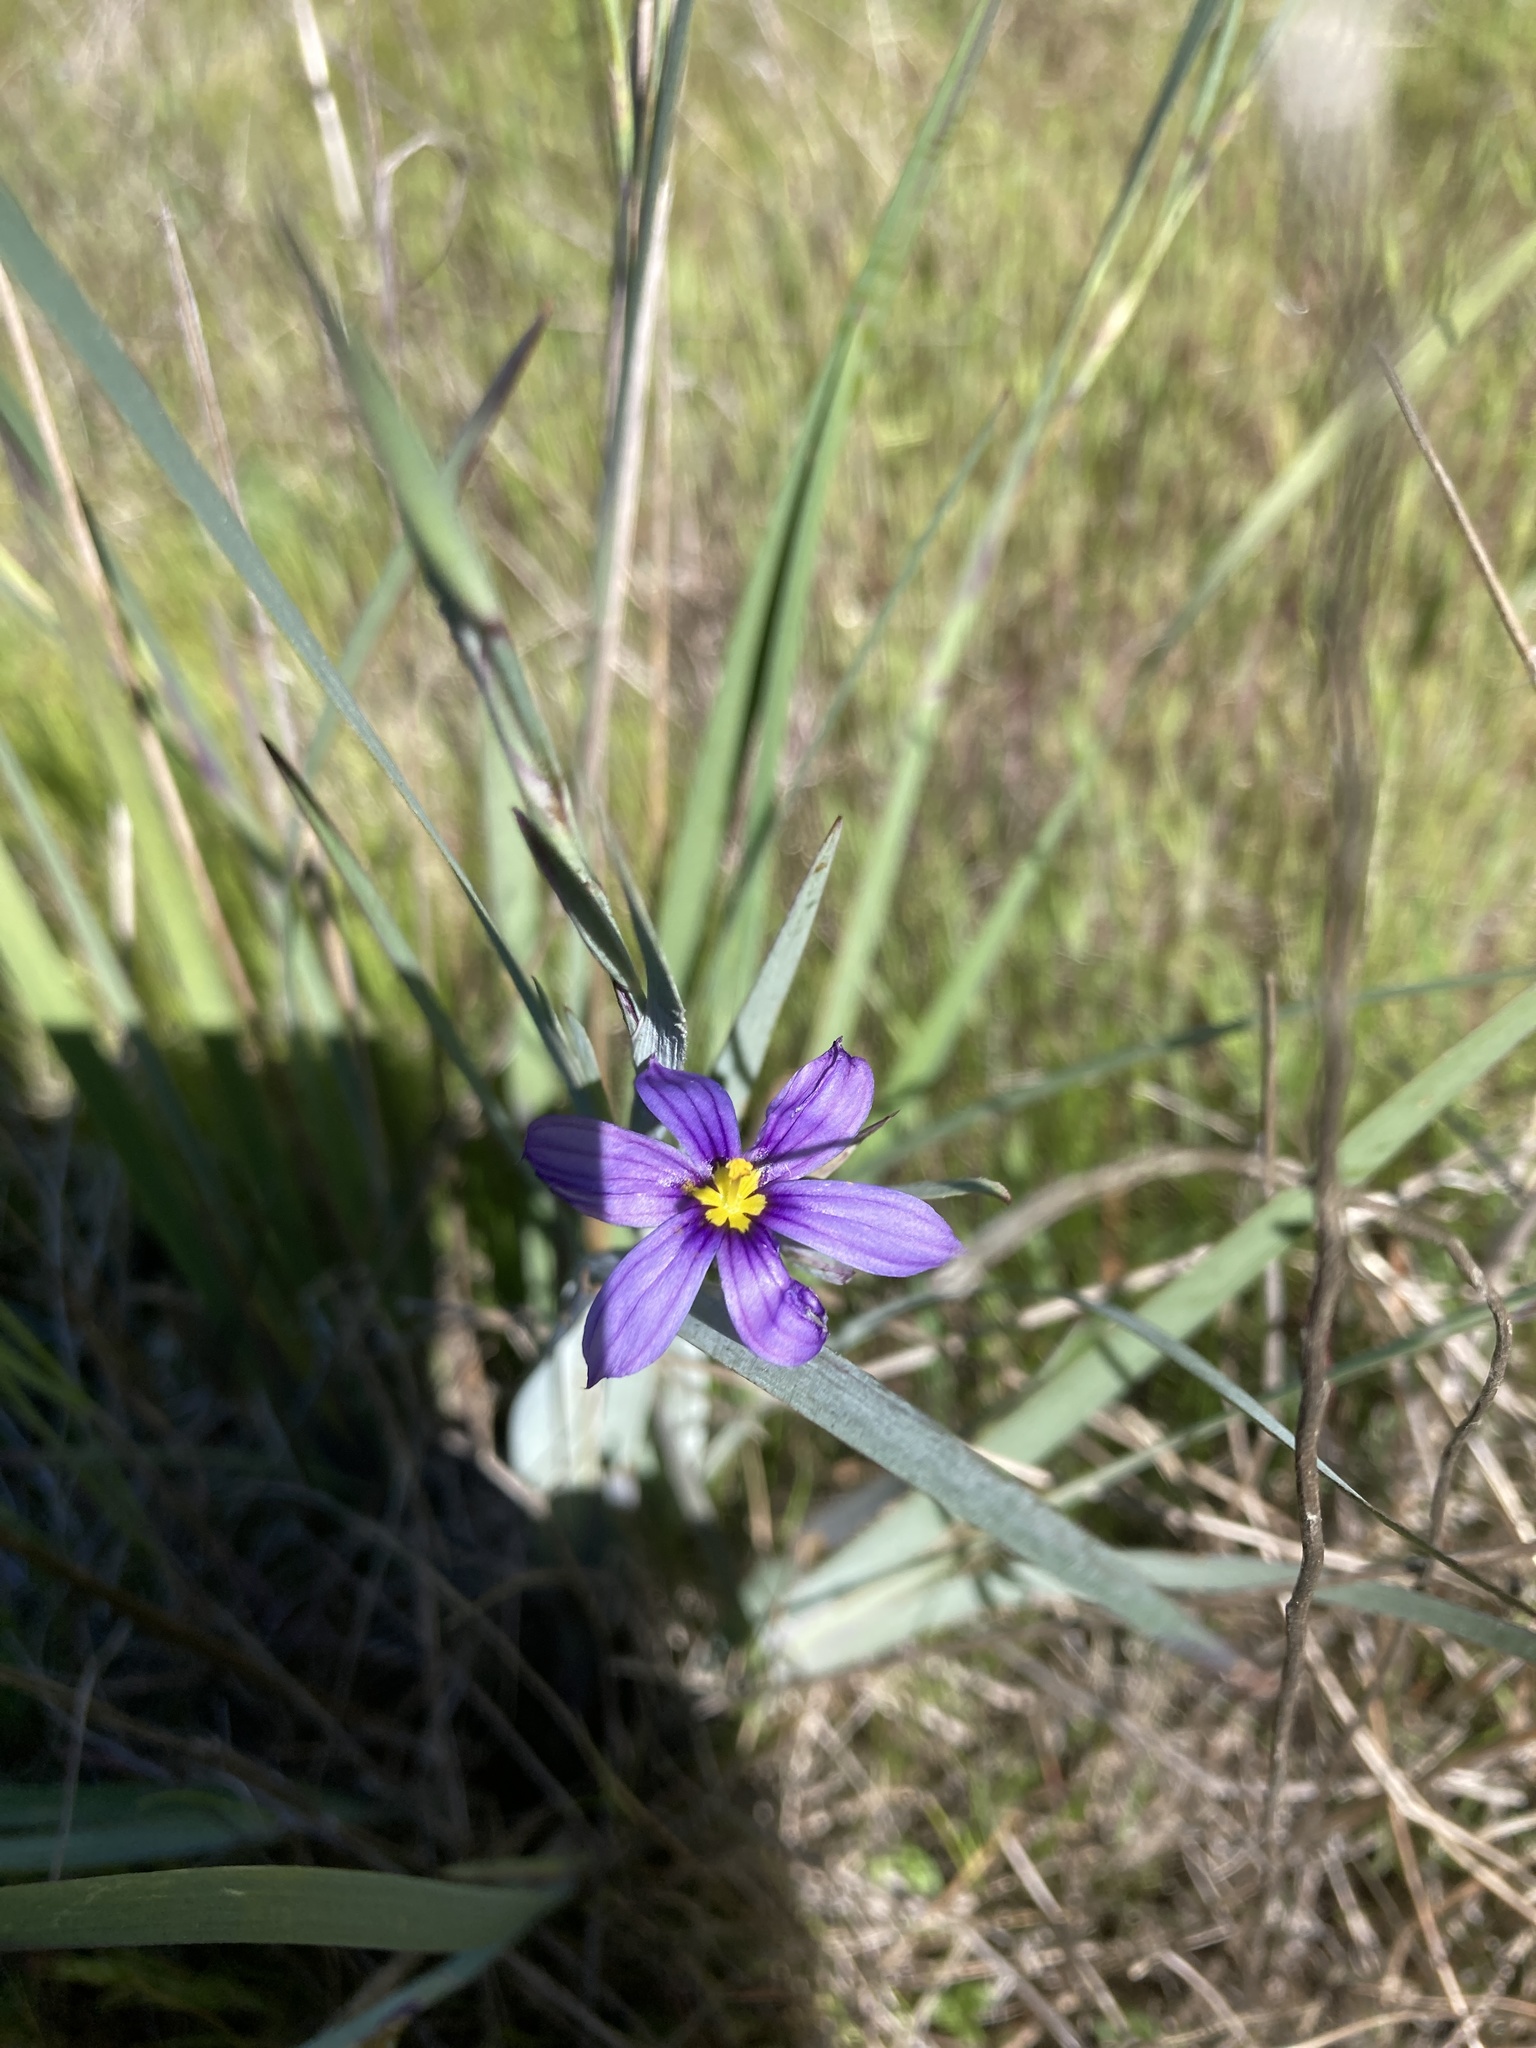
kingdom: Plantae
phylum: Tracheophyta
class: Liliopsida
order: Asparagales
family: Iridaceae
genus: Sisyrinchium
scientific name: Sisyrinchium bellum
